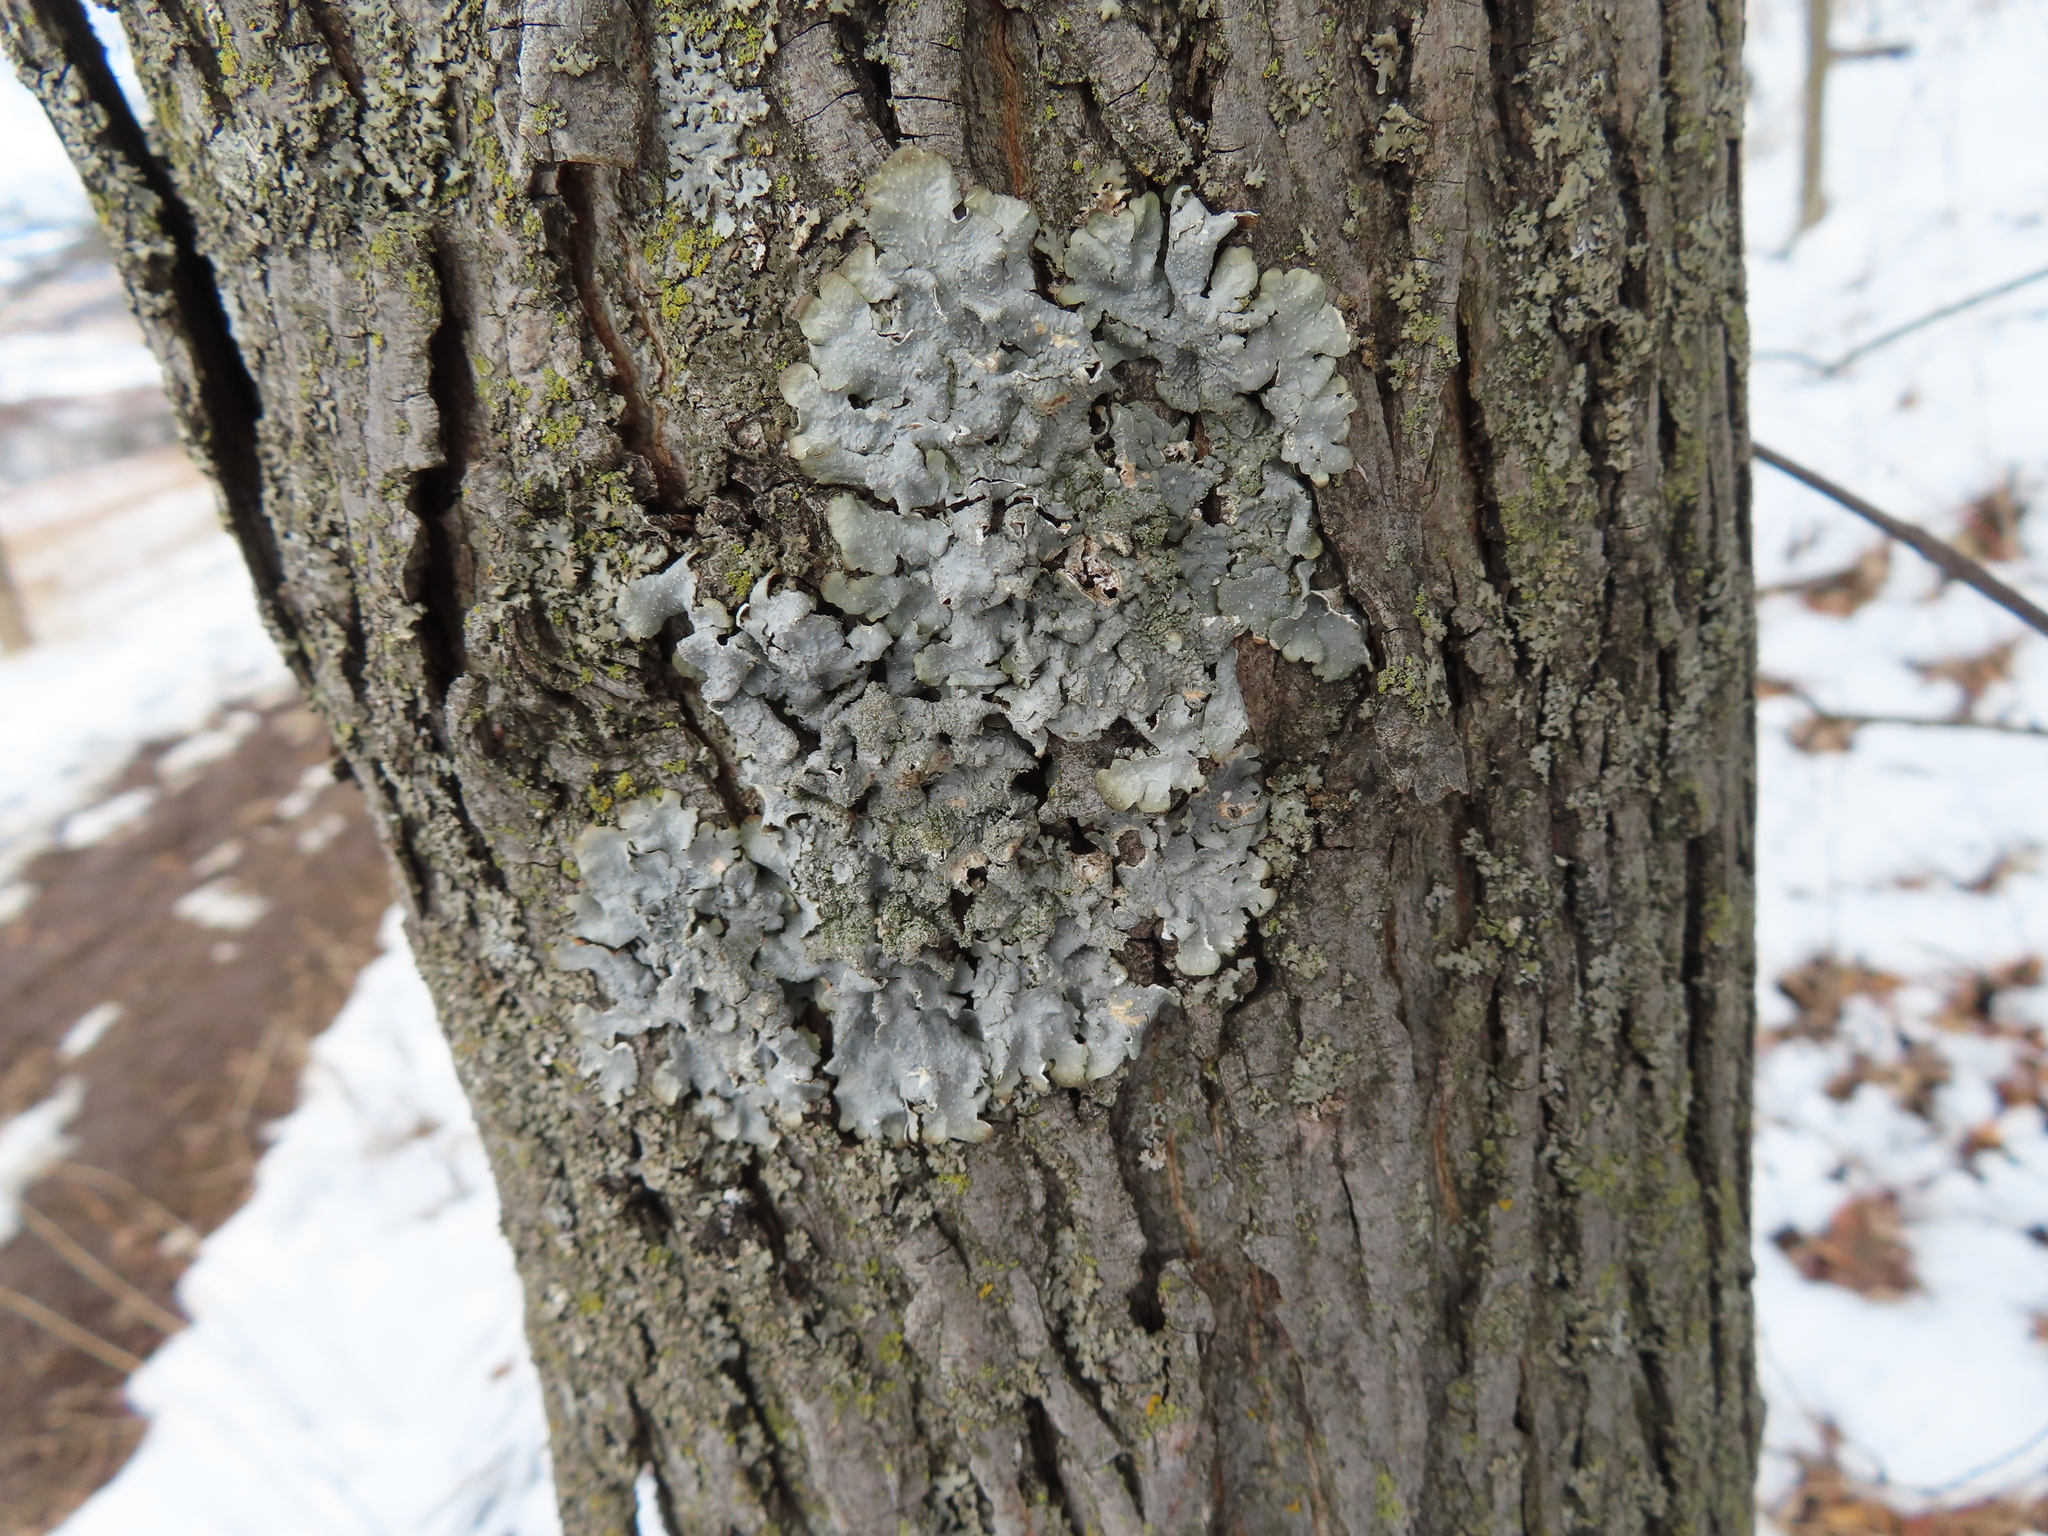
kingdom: Fungi
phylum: Ascomycota
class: Lecanoromycetes
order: Lecanorales
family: Parmeliaceae
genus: Punctelia
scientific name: Punctelia rudecta
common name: Rough speckled shield lichen
